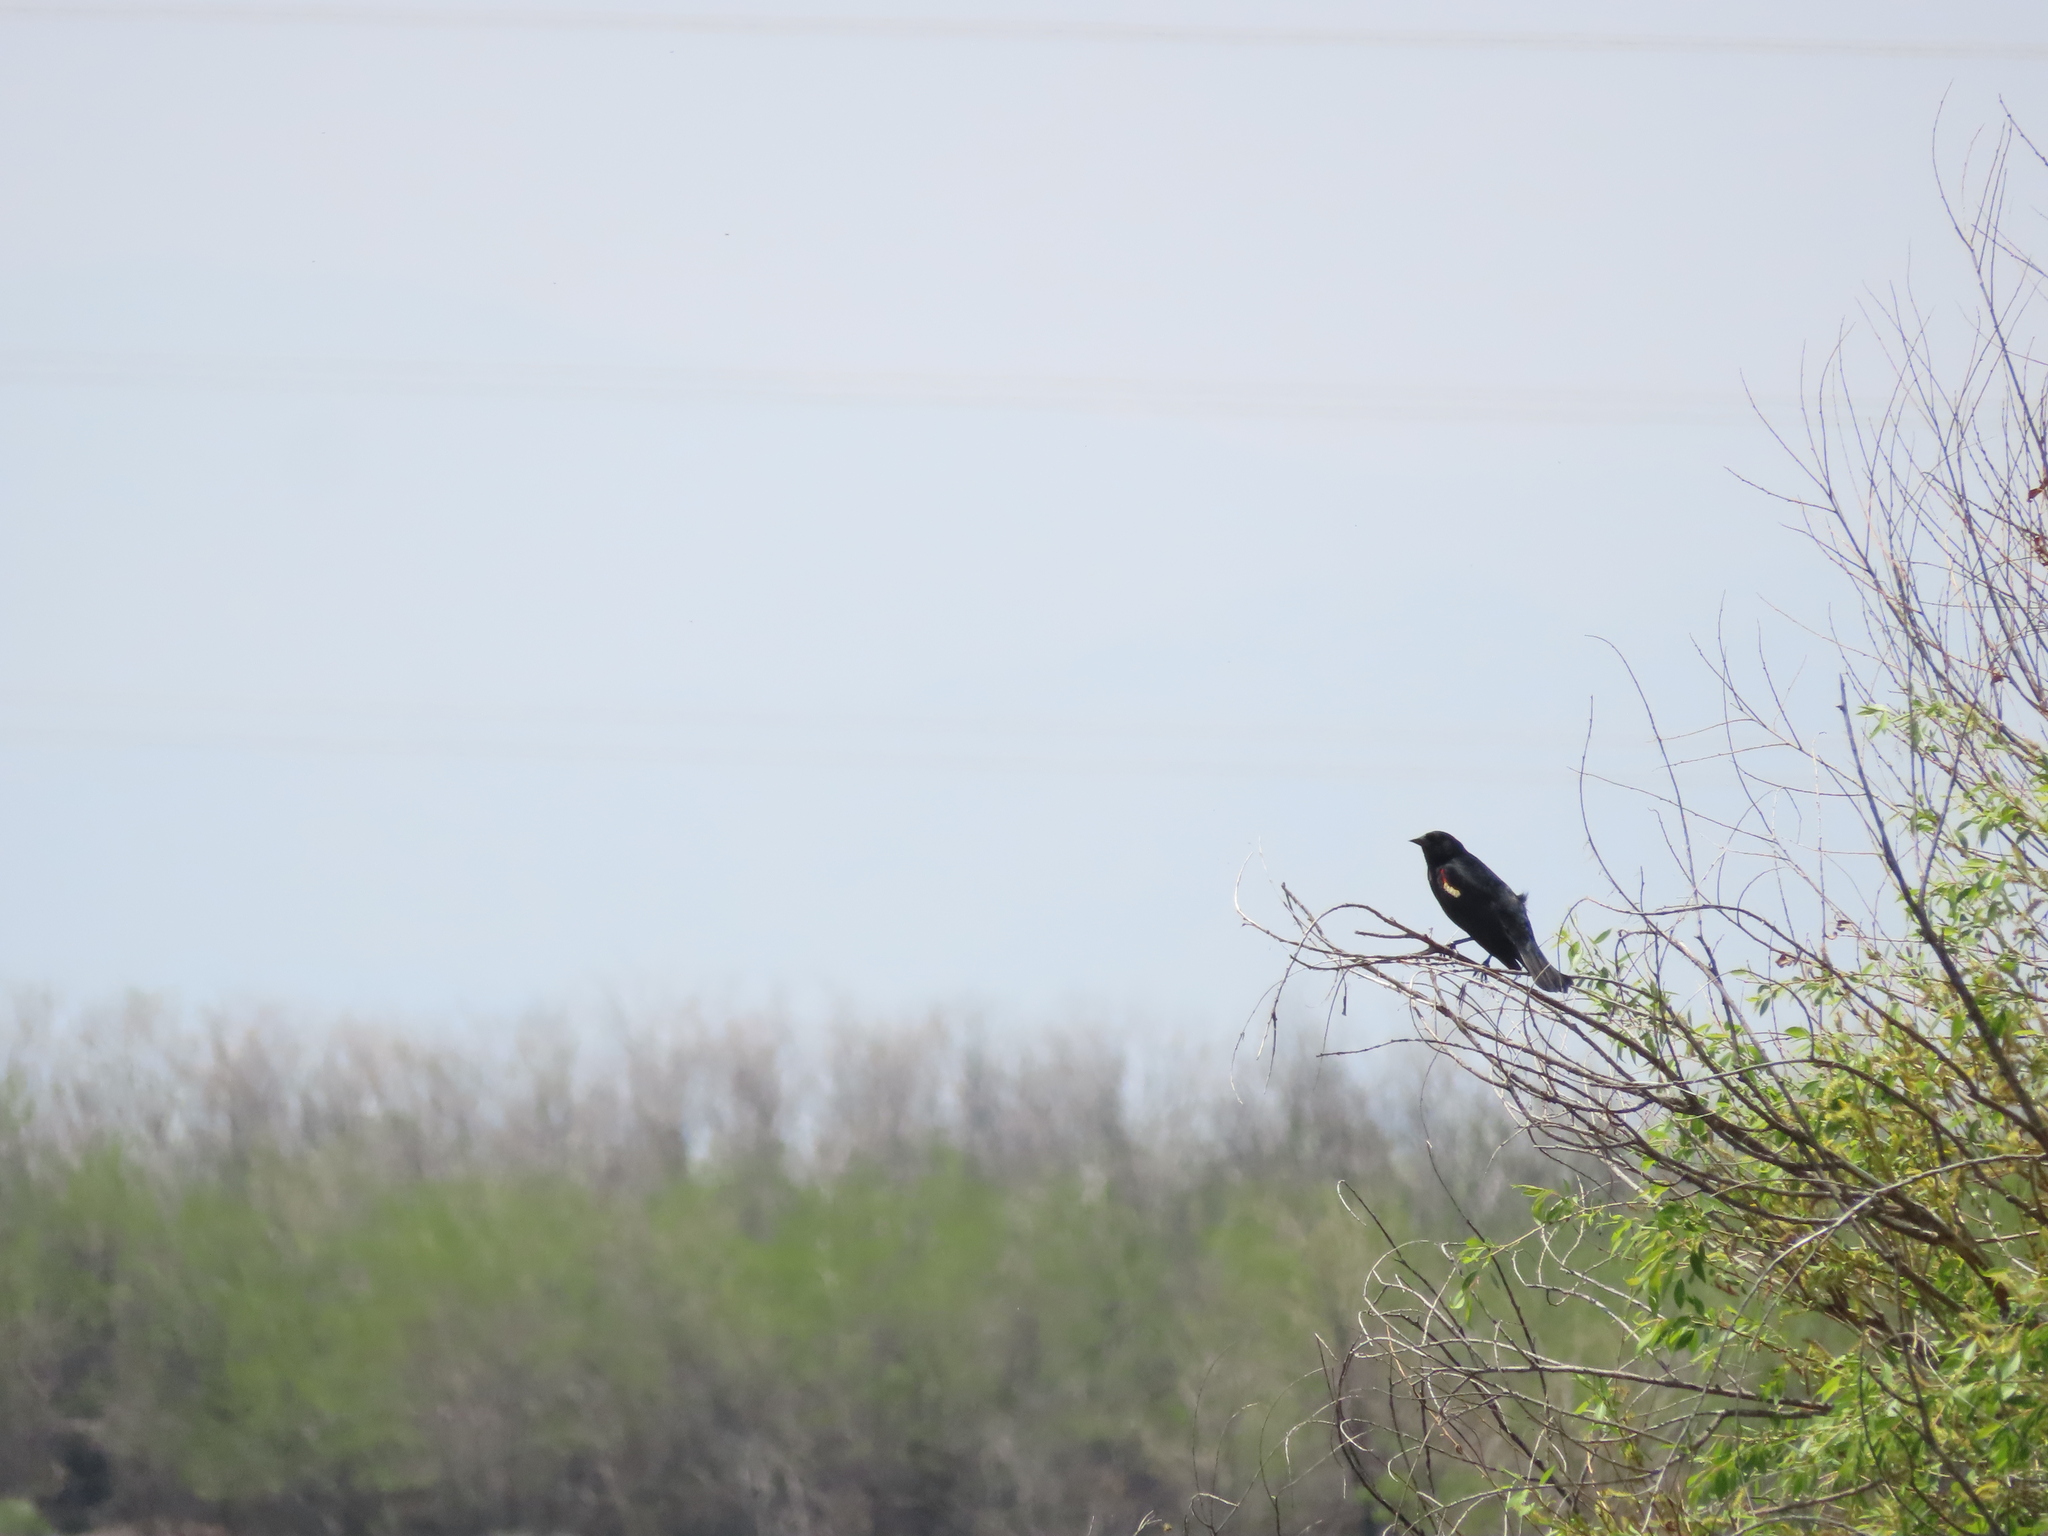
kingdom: Animalia
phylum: Chordata
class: Aves
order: Passeriformes
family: Icteridae
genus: Agelaius
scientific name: Agelaius phoeniceus
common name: Red-winged blackbird
